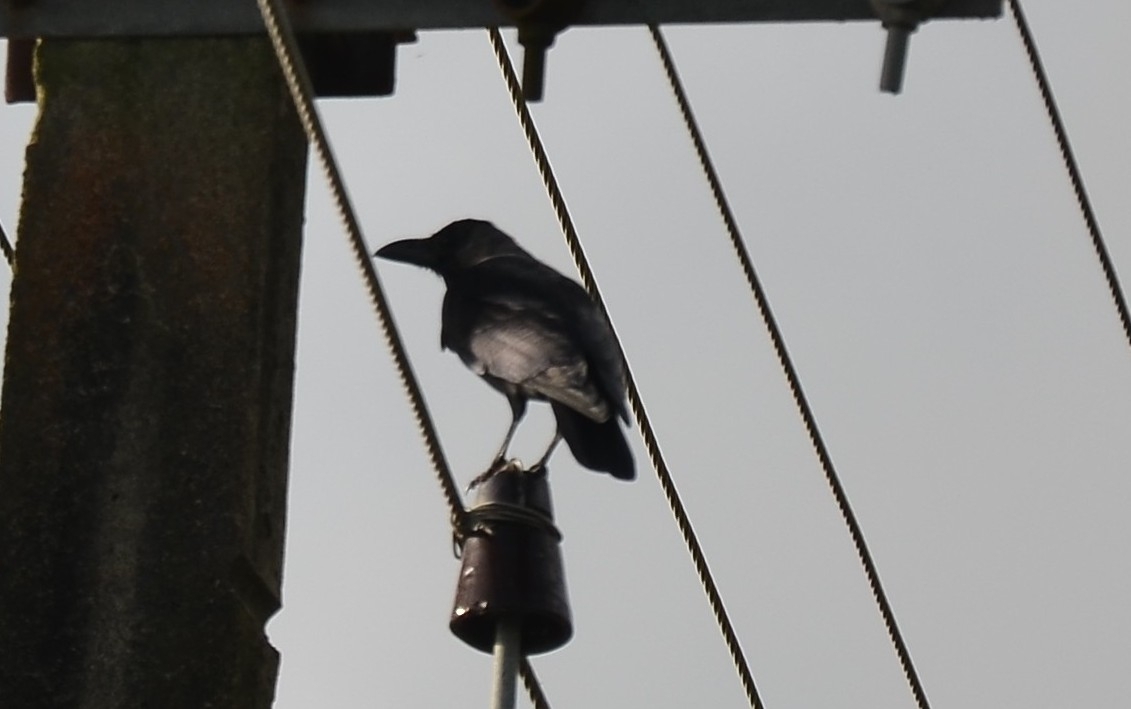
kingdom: Animalia
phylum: Chordata
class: Aves
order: Passeriformes
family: Corvidae
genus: Corvus
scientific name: Corvus splendens
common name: House crow
